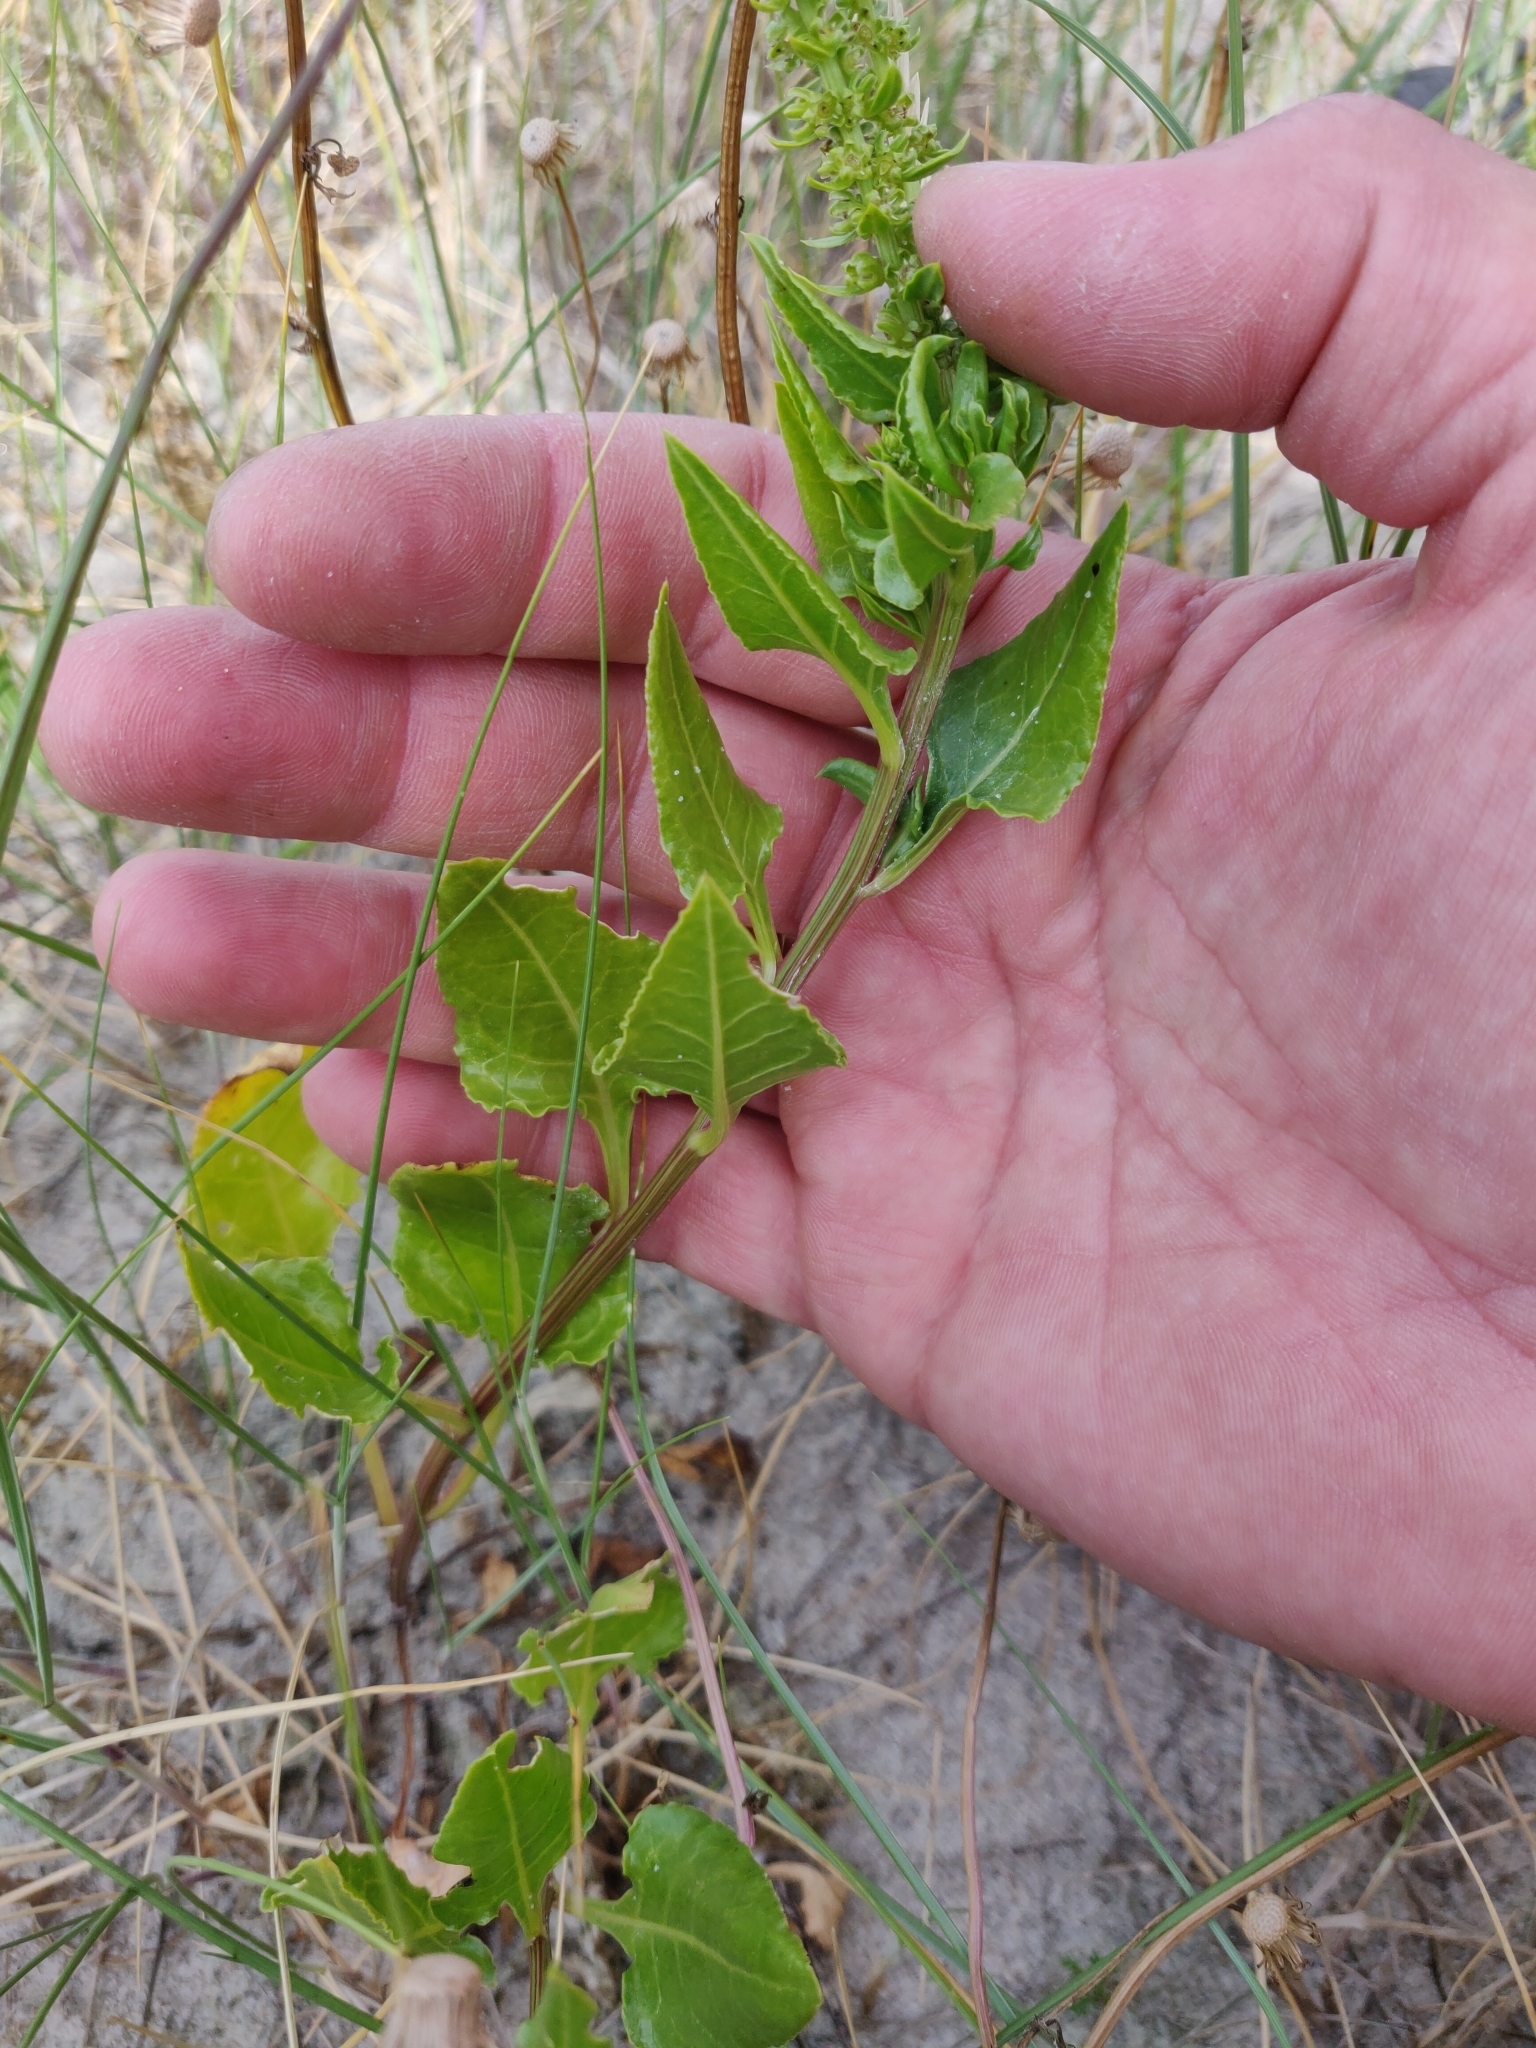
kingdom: Plantae
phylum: Tracheophyta
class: Magnoliopsida
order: Caryophyllales
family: Amaranthaceae
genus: Beta
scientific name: Beta vulgaris
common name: Beet
